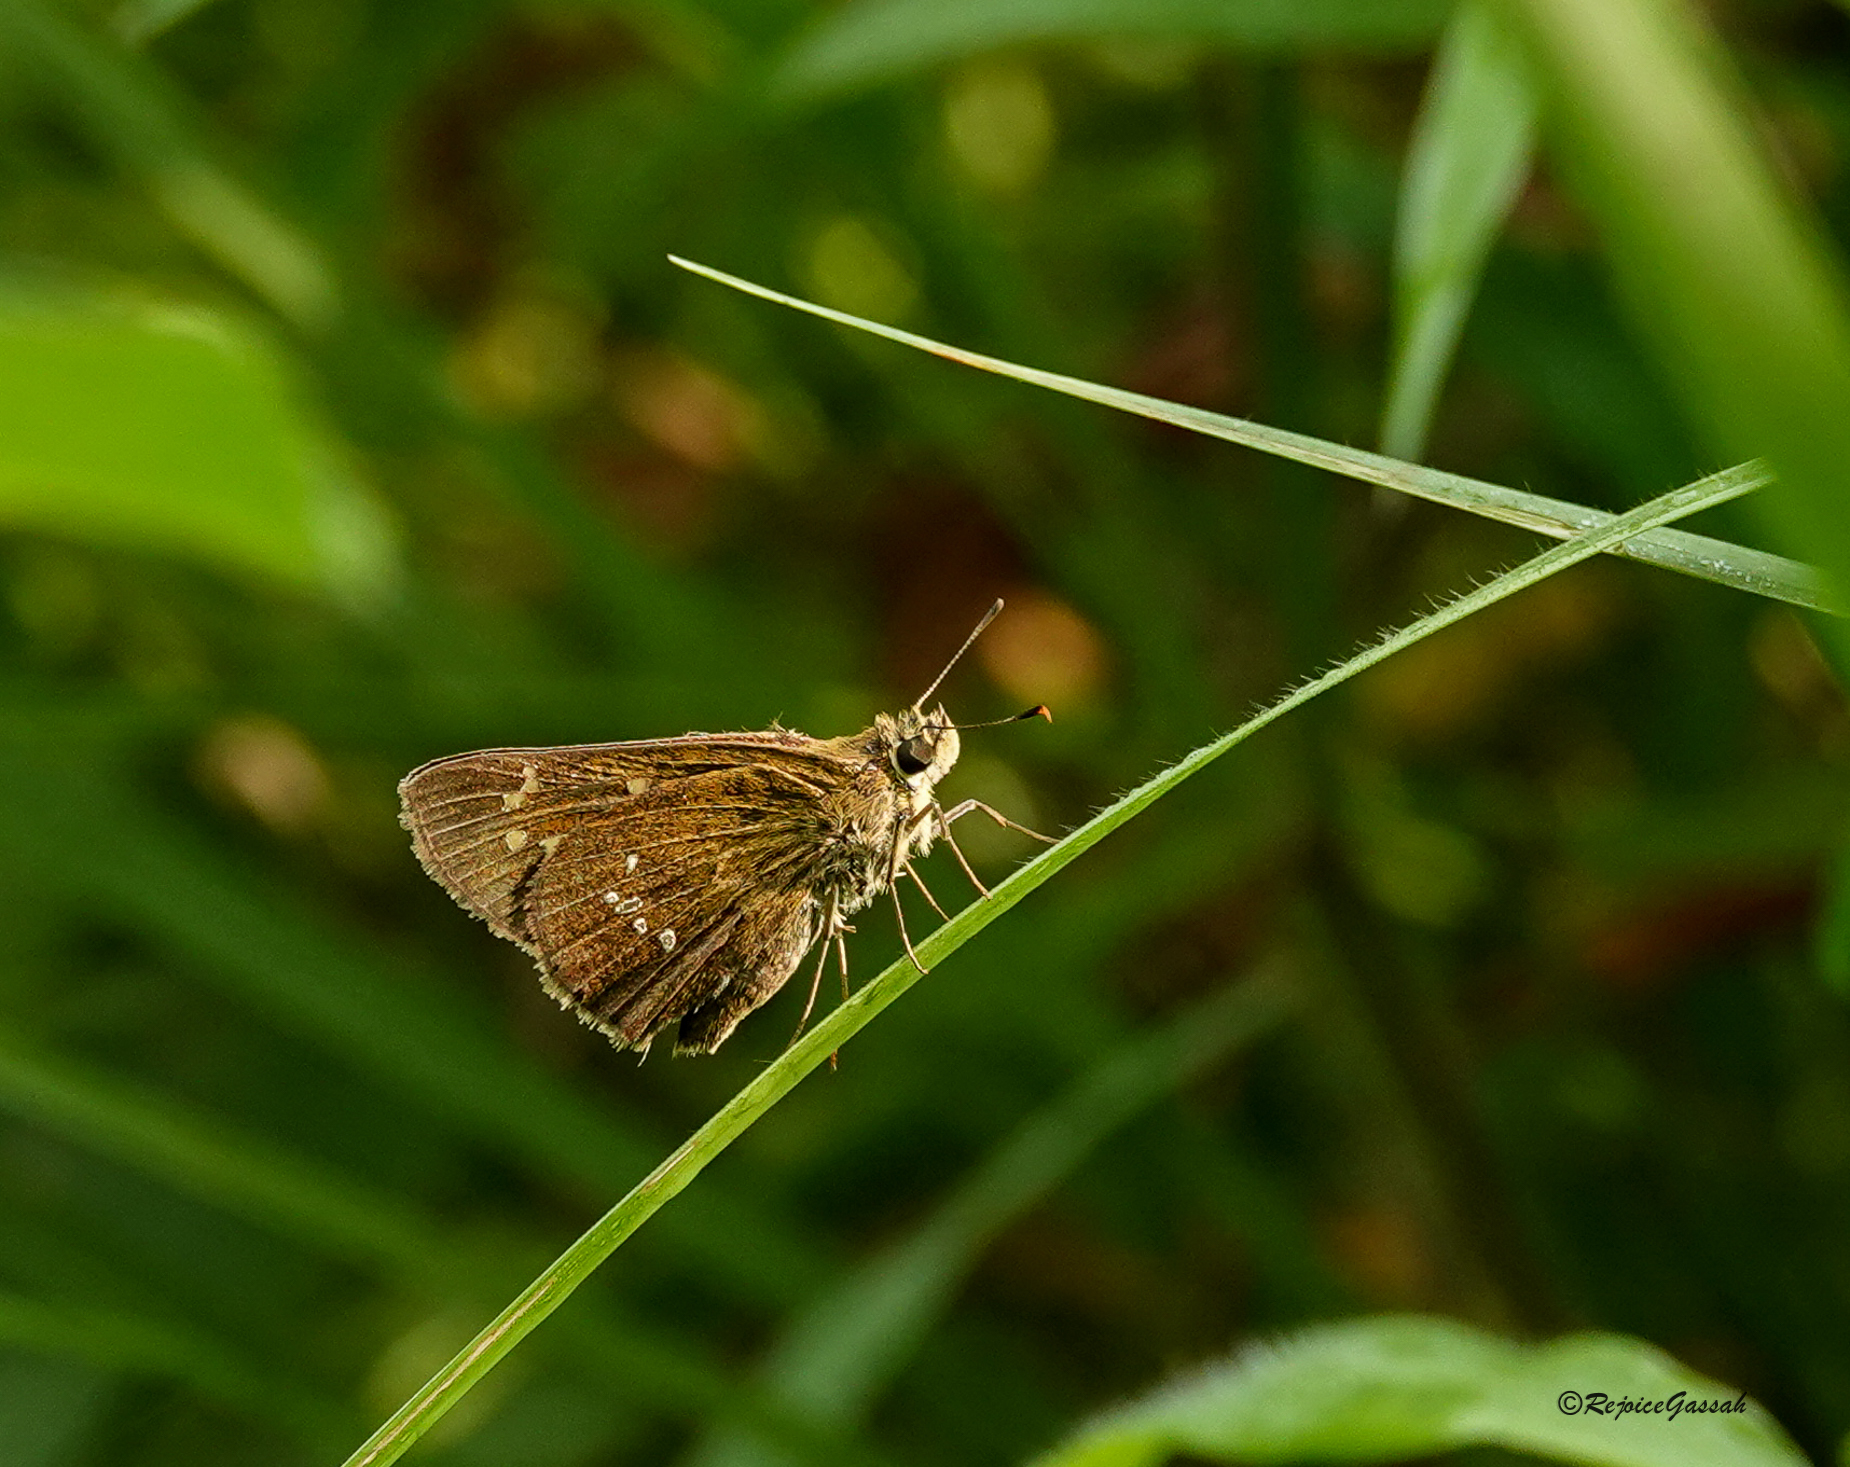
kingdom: Animalia
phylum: Arthropoda
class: Insecta
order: Lepidoptera
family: Hesperiidae
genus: Polytremis
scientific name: Polytremis lubricans
